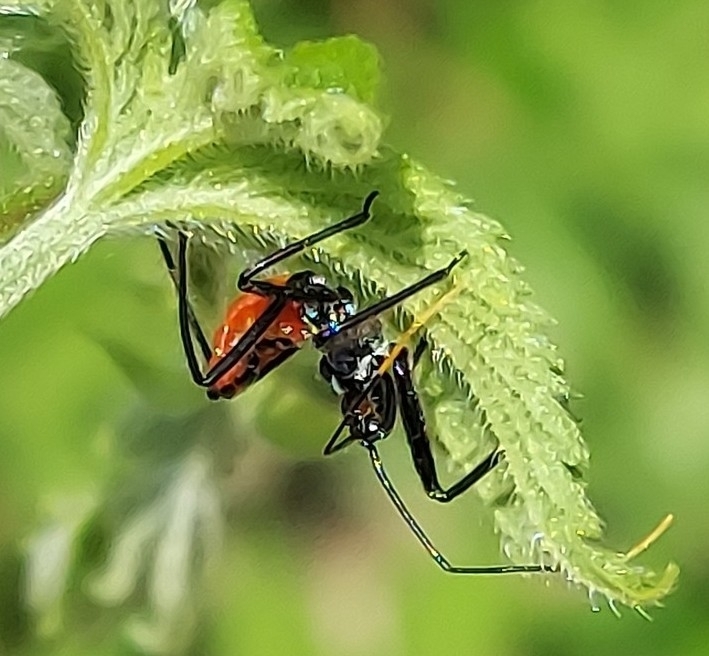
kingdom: Animalia
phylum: Arthropoda
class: Insecta
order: Hemiptera
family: Reduviidae
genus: Arilus
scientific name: Arilus cristatus
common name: North american wheel bug
